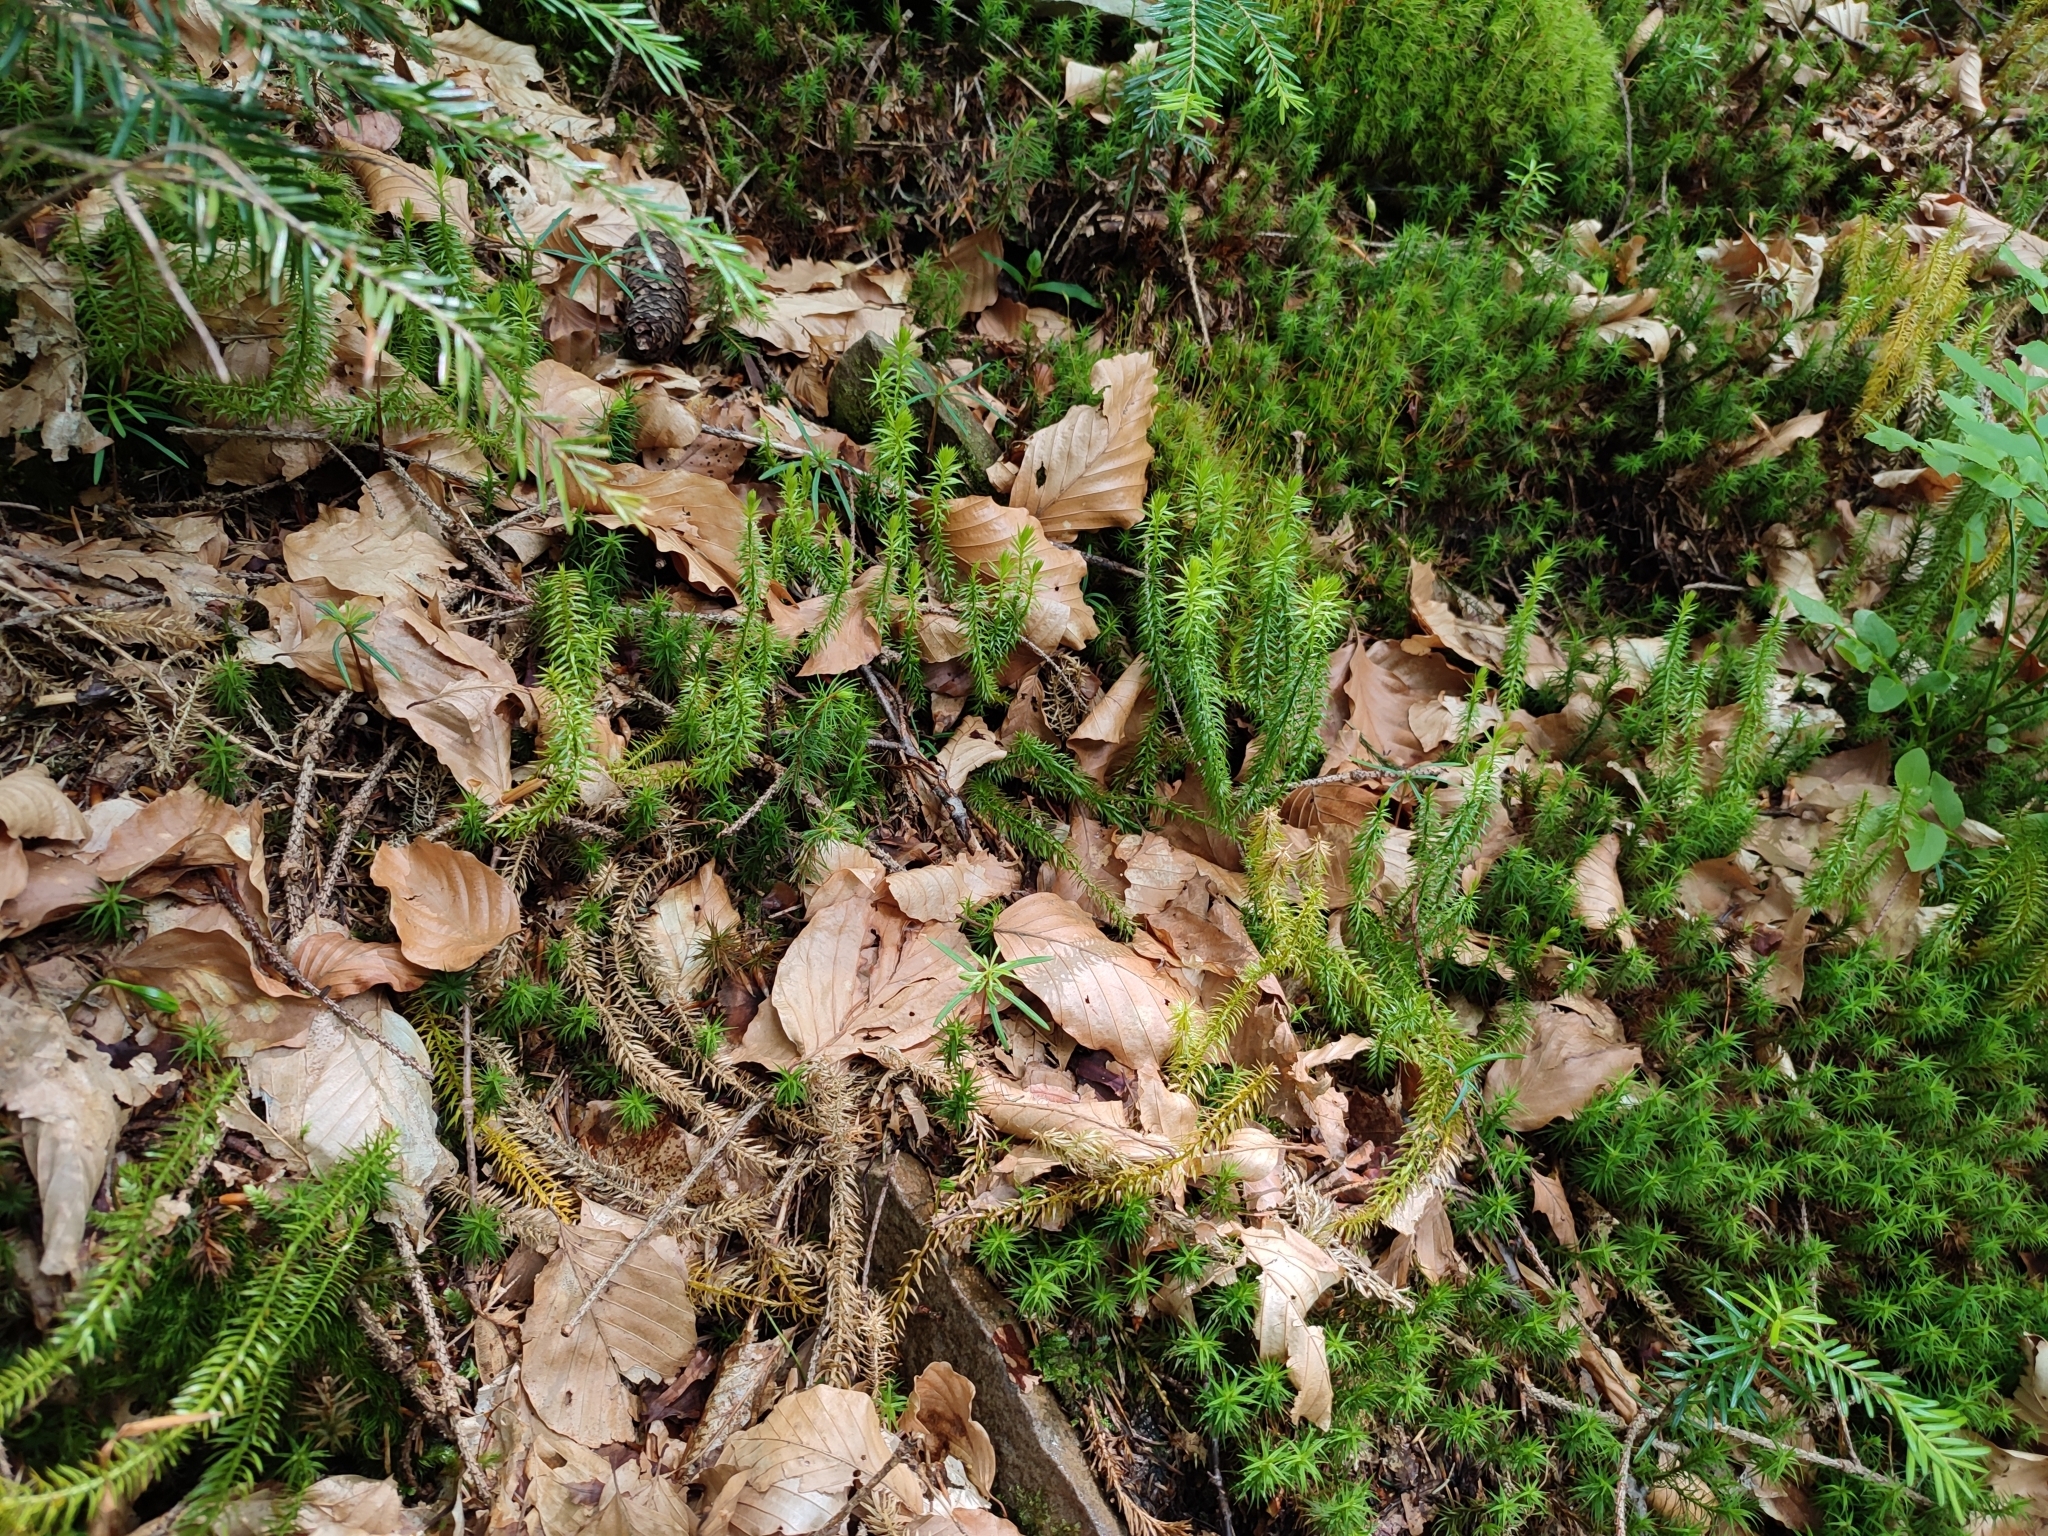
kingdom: Plantae
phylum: Tracheophyta
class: Lycopodiopsida
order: Lycopodiales
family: Lycopodiaceae
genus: Spinulum
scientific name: Spinulum annotinum
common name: Interrupted club-moss
